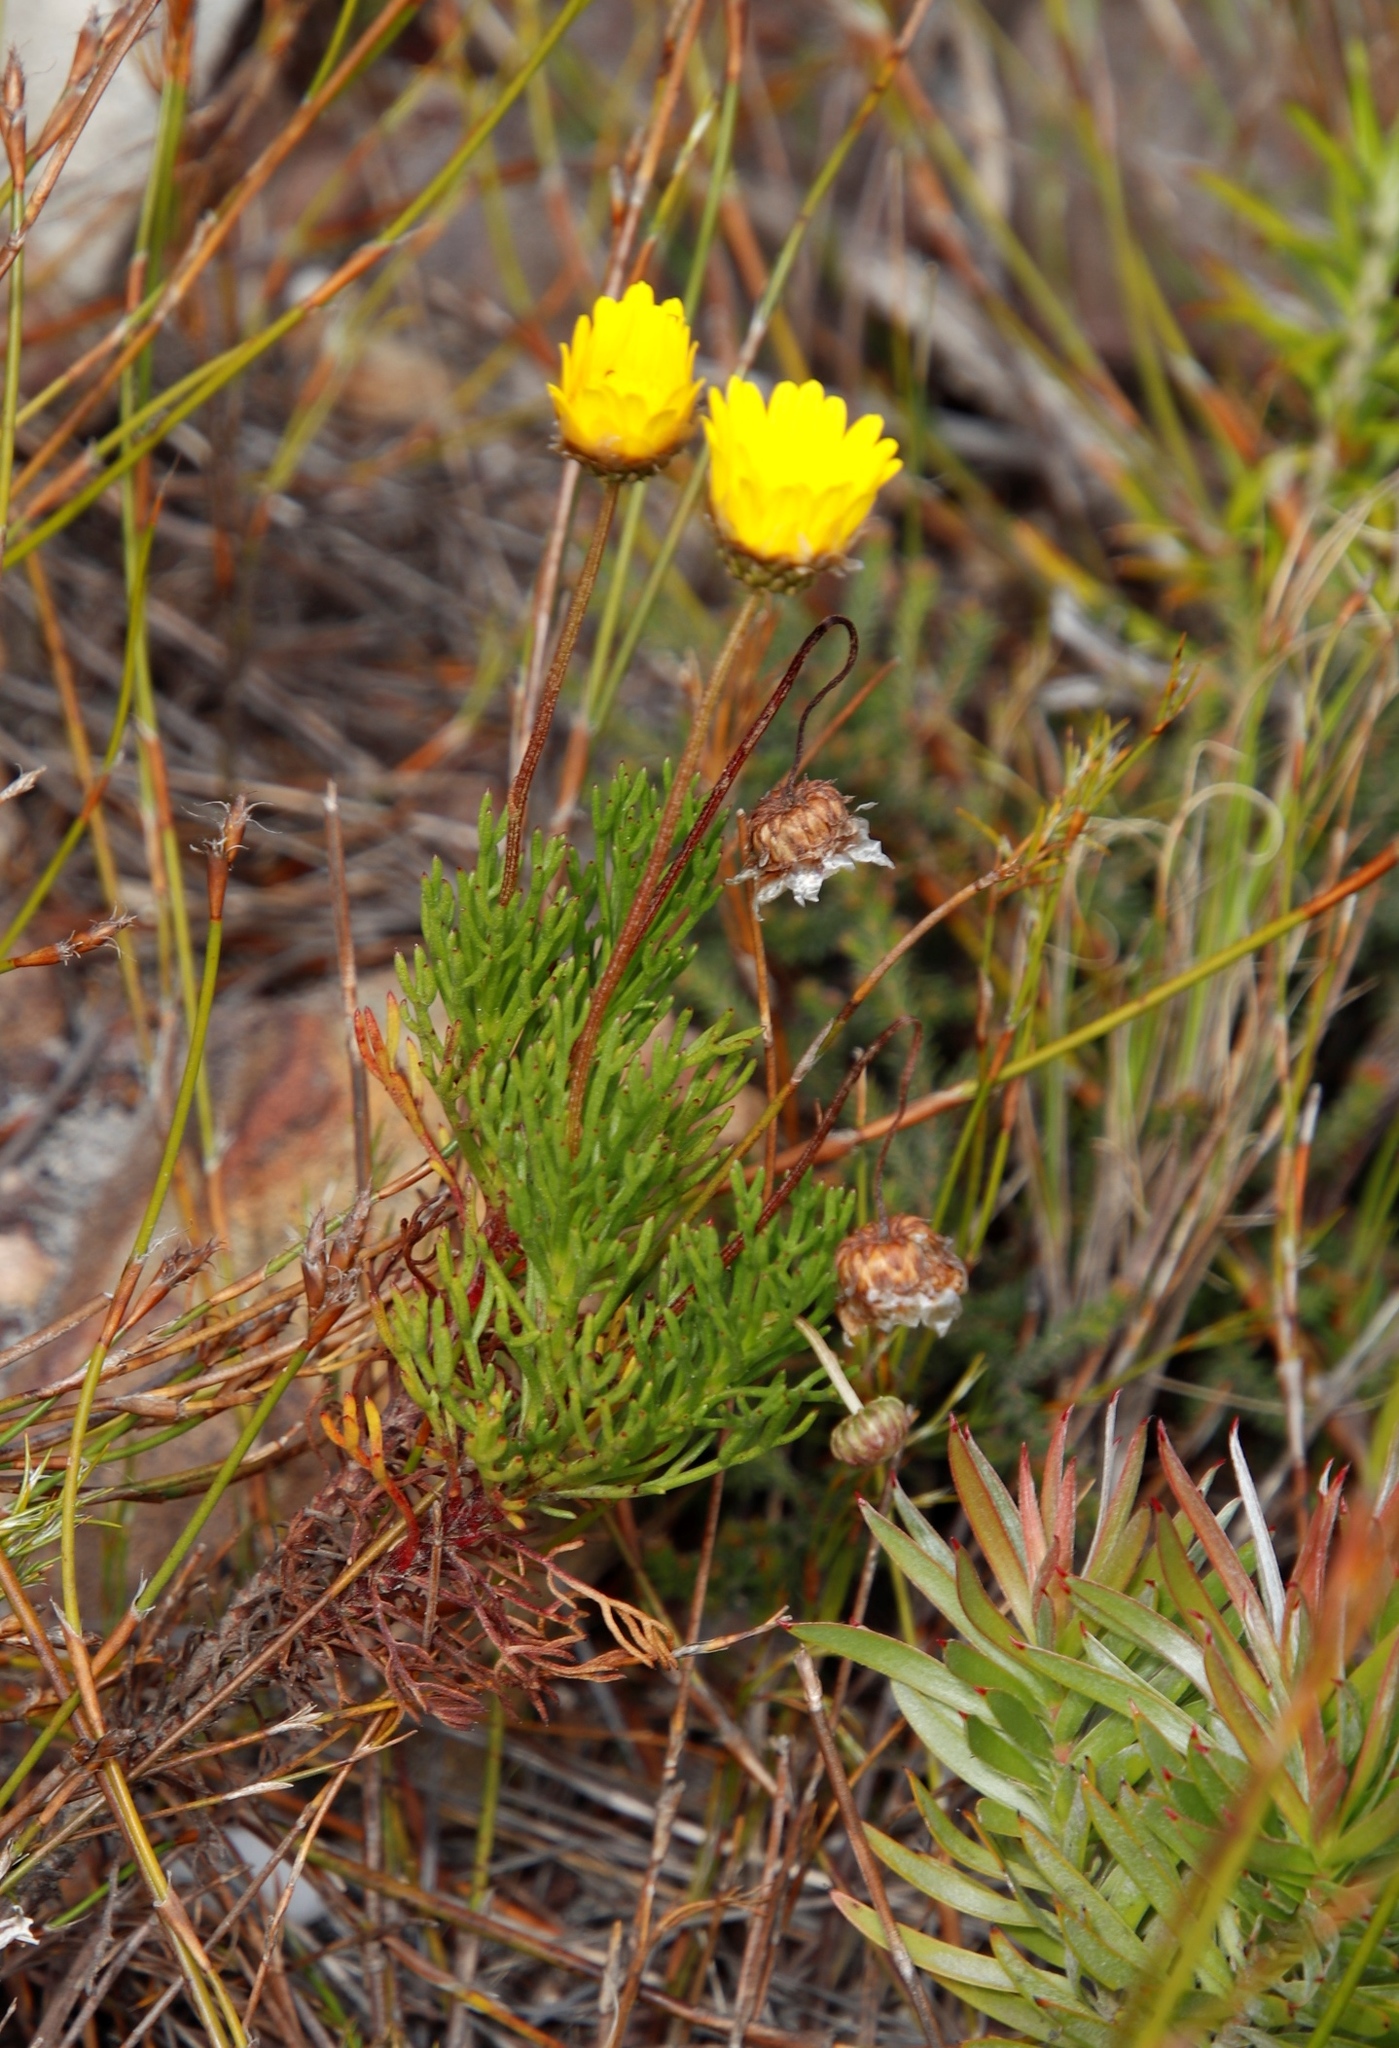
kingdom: Plantae
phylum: Tracheophyta
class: Magnoliopsida
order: Asterales
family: Asteraceae
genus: Euryops
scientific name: Euryops abrotanifolius
